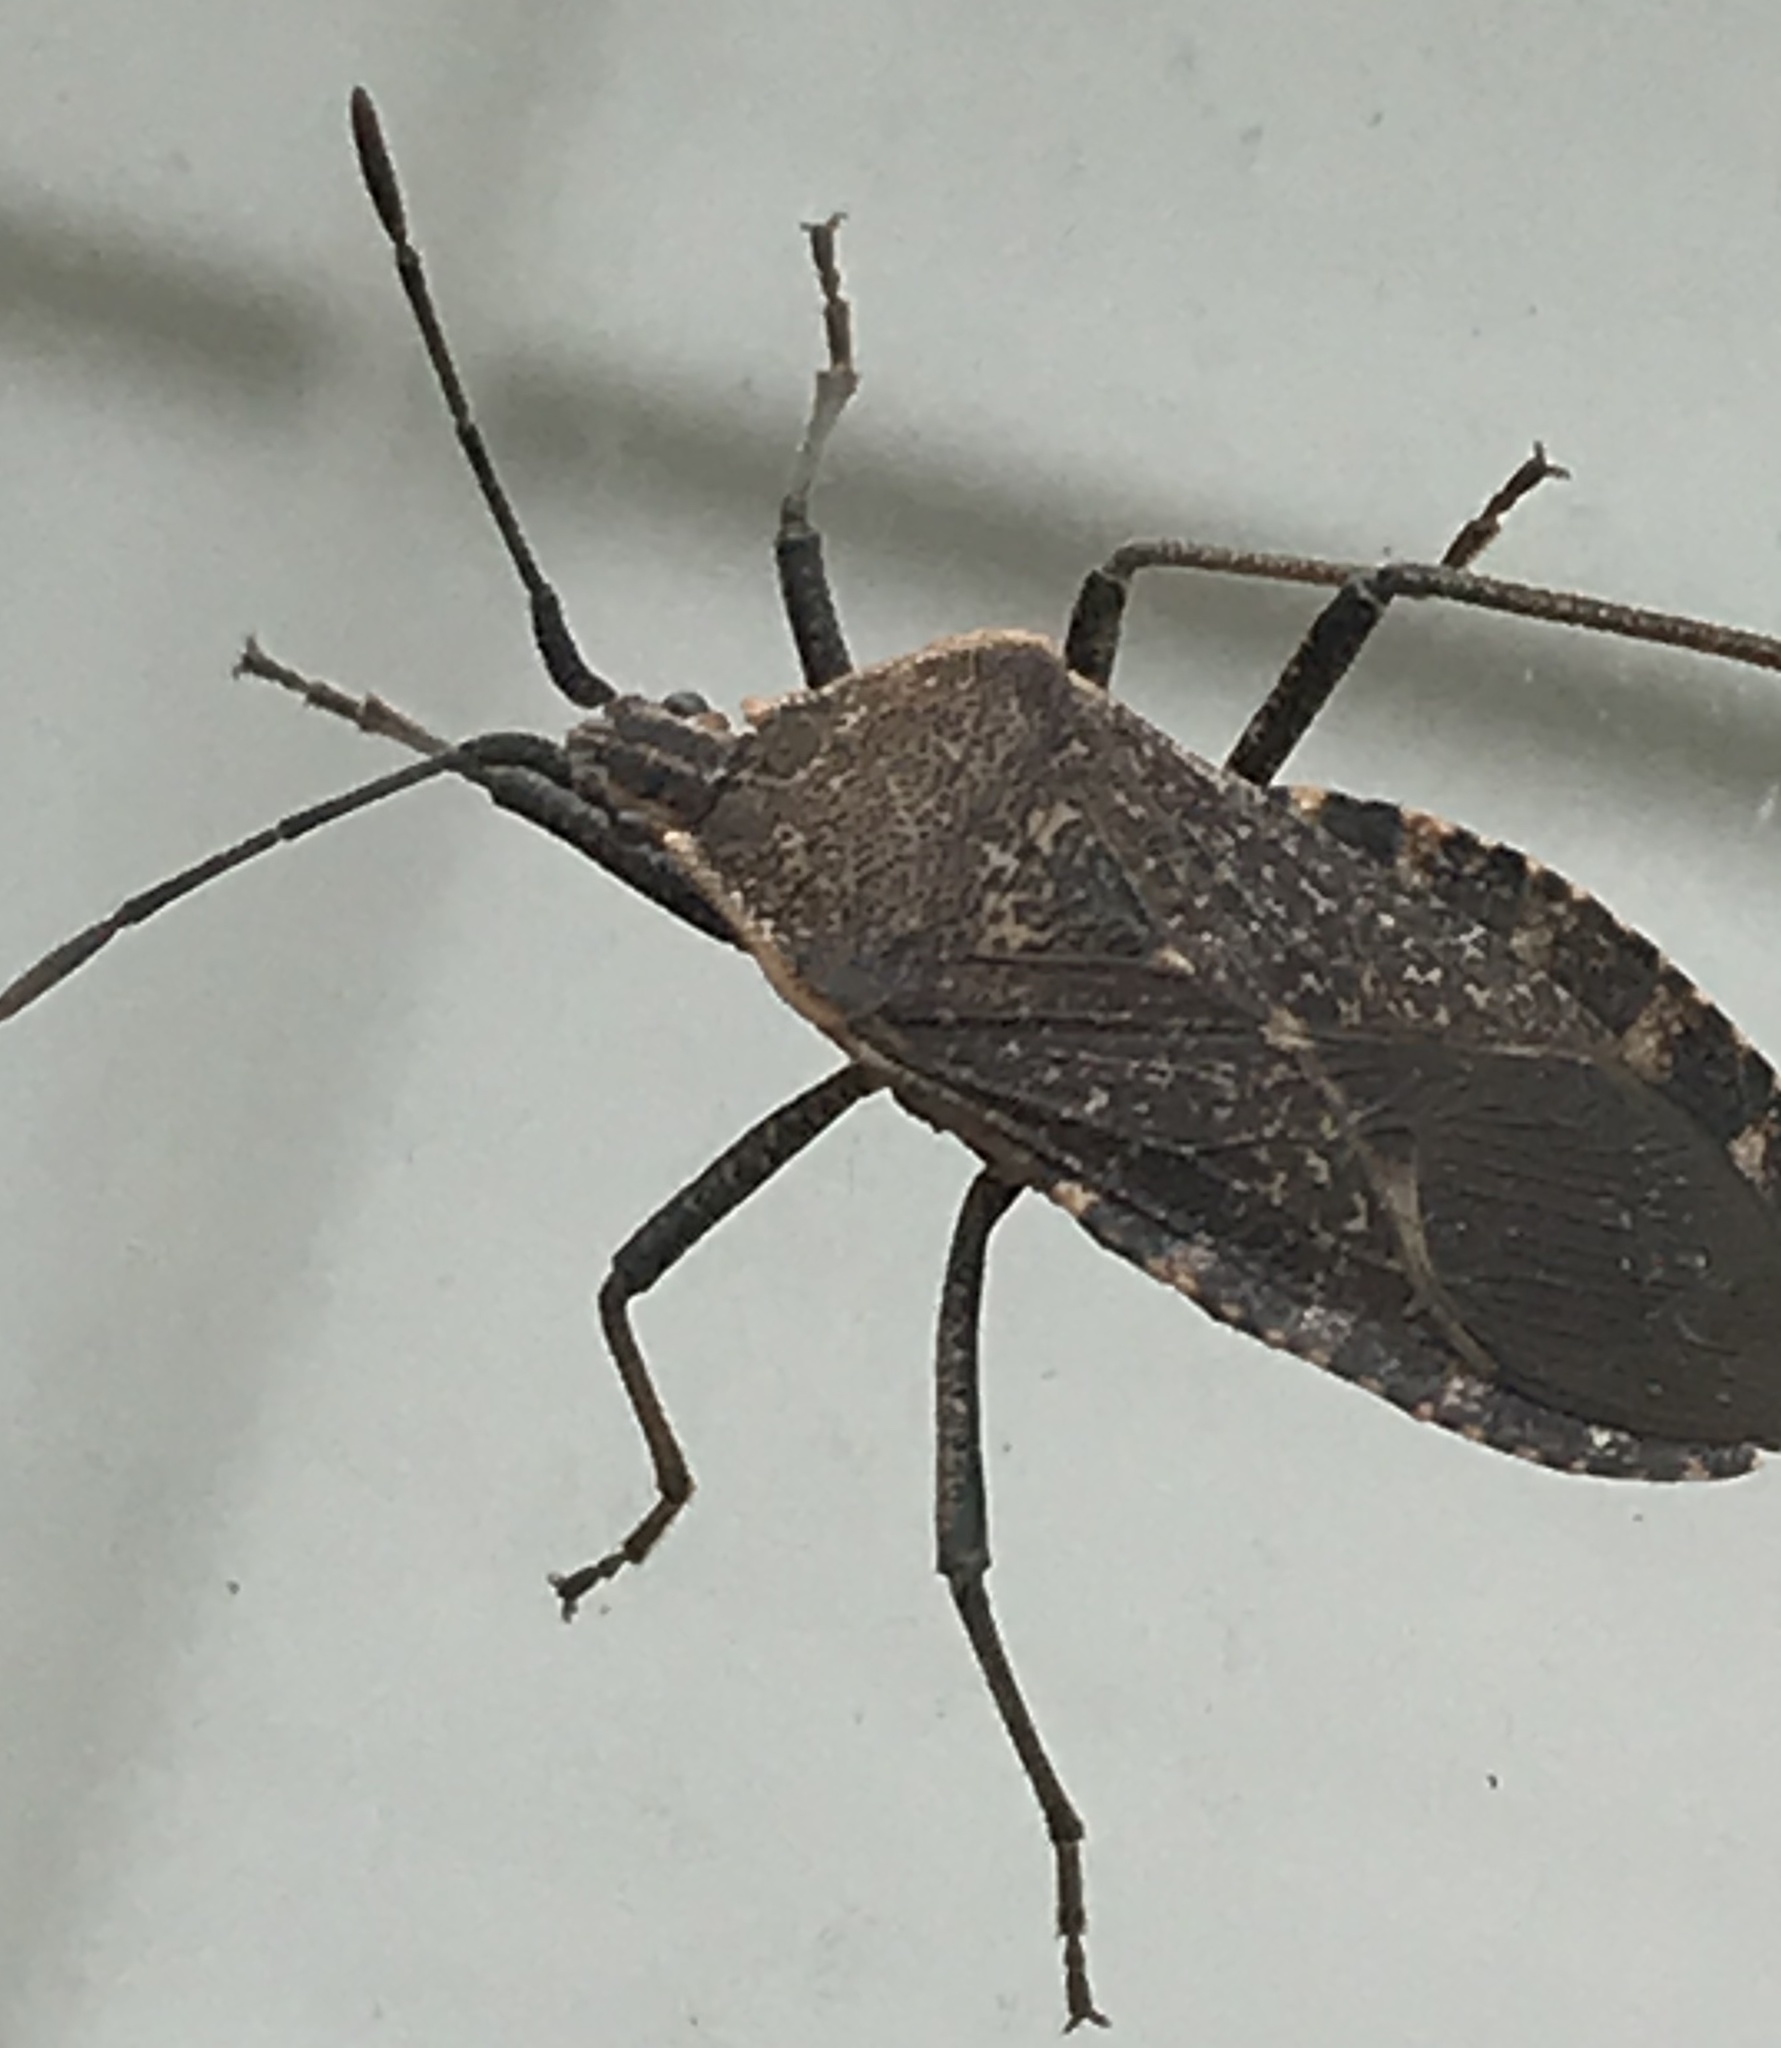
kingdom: Animalia
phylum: Arthropoda
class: Insecta
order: Hemiptera
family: Coreidae
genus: Anasa
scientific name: Anasa tristis
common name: Squash bug
